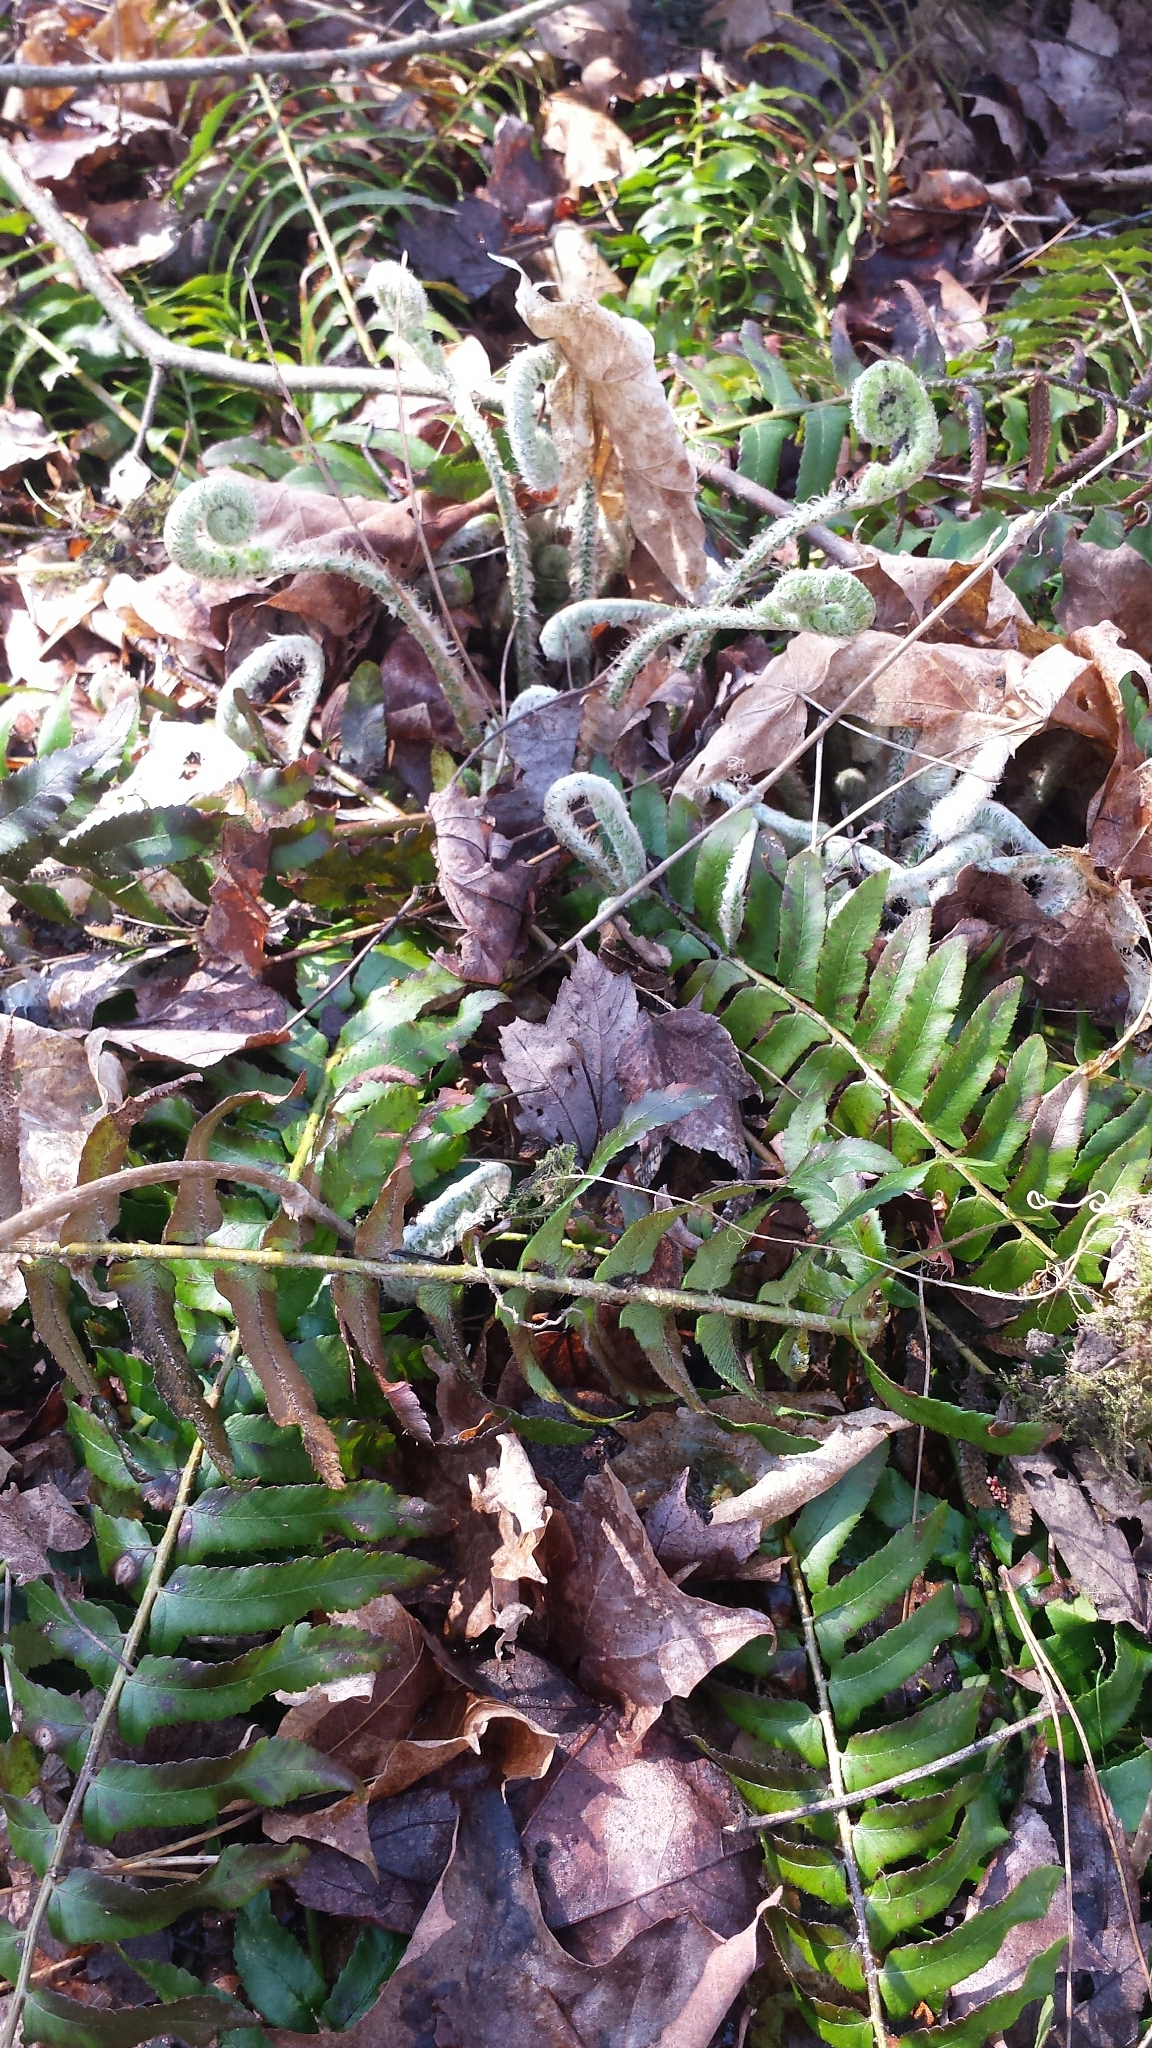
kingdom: Plantae
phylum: Tracheophyta
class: Polypodiopsida
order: Polypodiales
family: Dryopteridaceae
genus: Polystichum
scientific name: Polystichum acrostichoides
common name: Christmas fern
